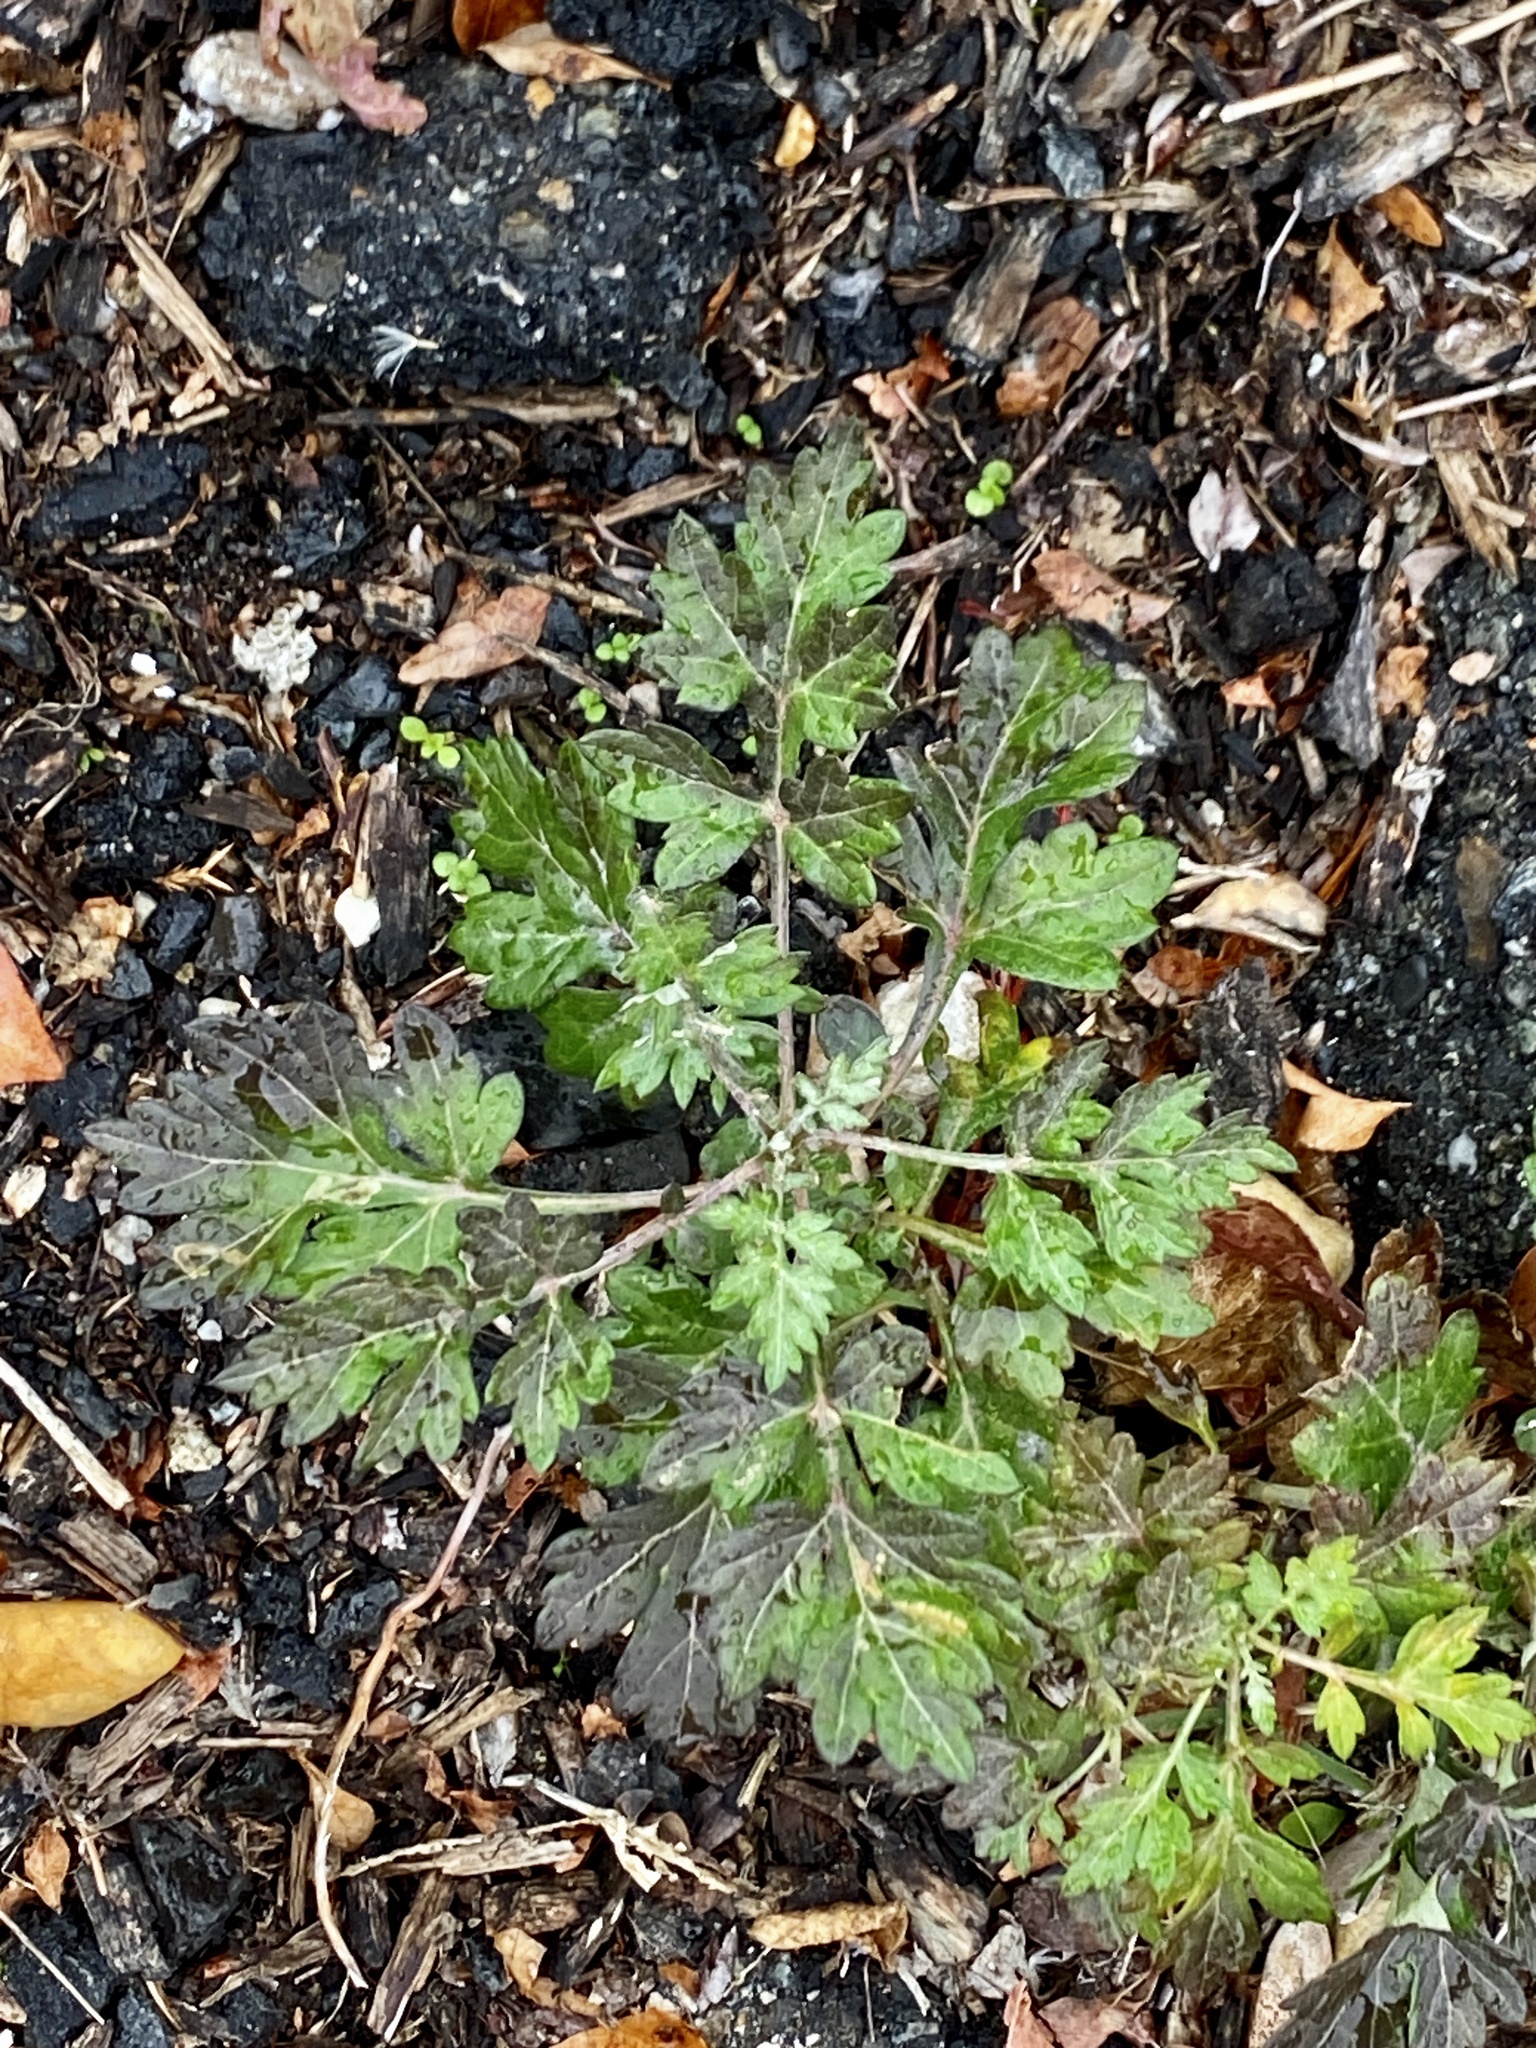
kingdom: Plantae
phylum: Tracheophyta
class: Magnoliopsida
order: Asterales
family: Asteraceae
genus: Artemisia
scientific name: Artemisia vulgaris
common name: Mugwort
